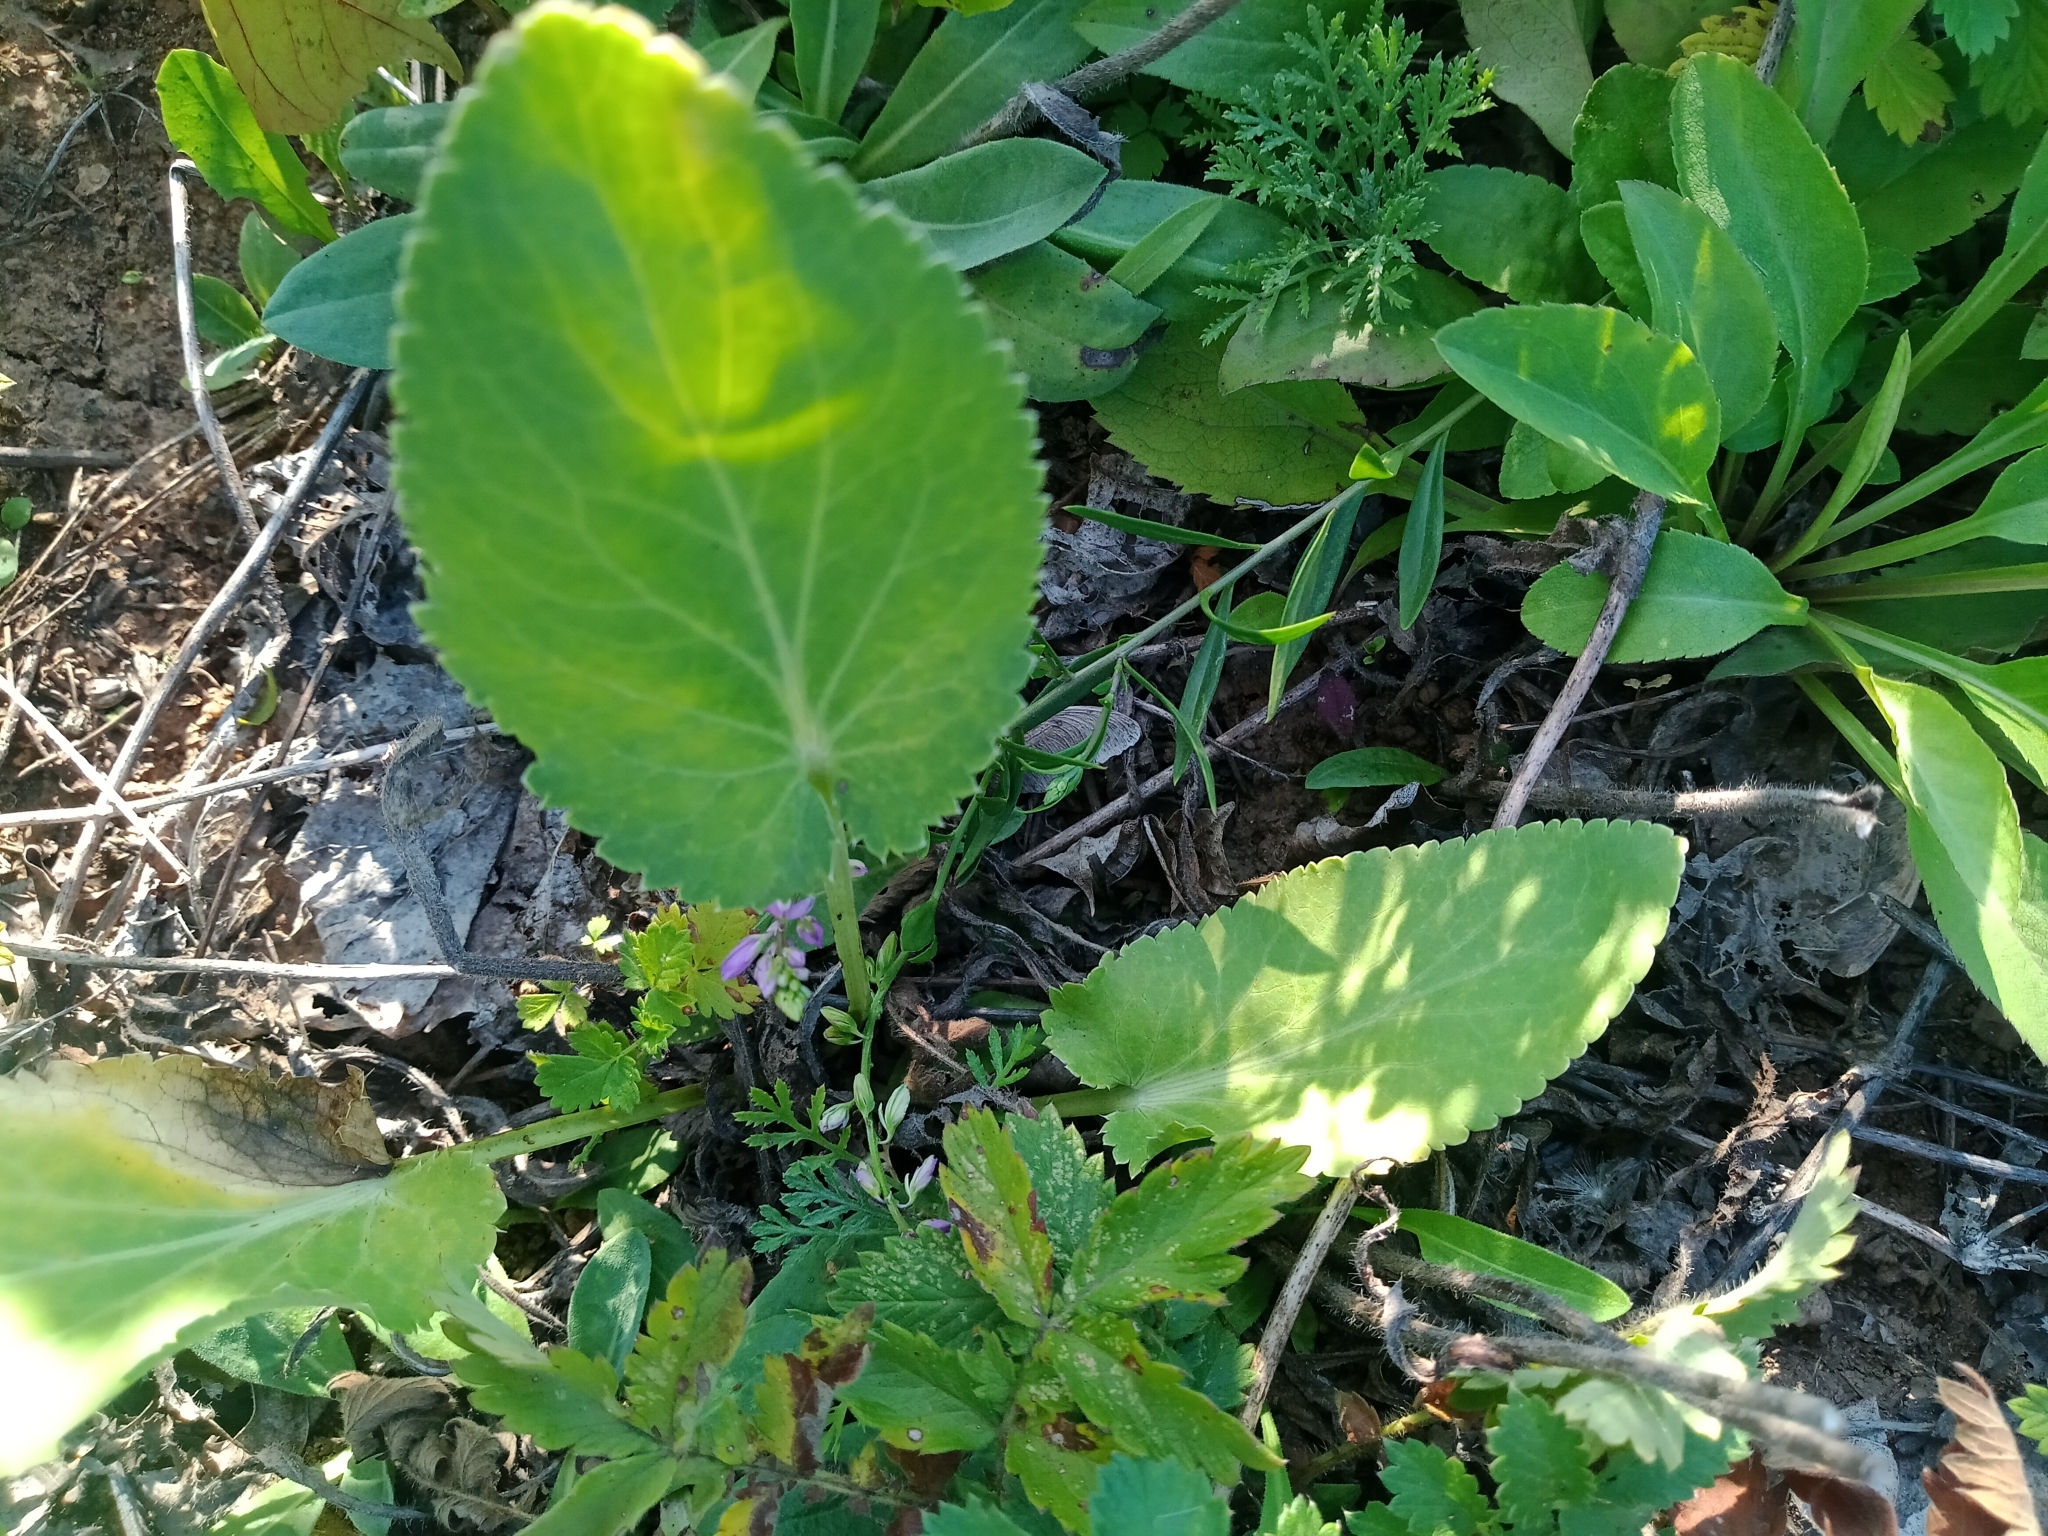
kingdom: Plantae
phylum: Tracheophyta
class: Magnoliopsida
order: Apiales
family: Apiaceae
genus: Eryngium
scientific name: Eryngium planum
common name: Blue eryngo
